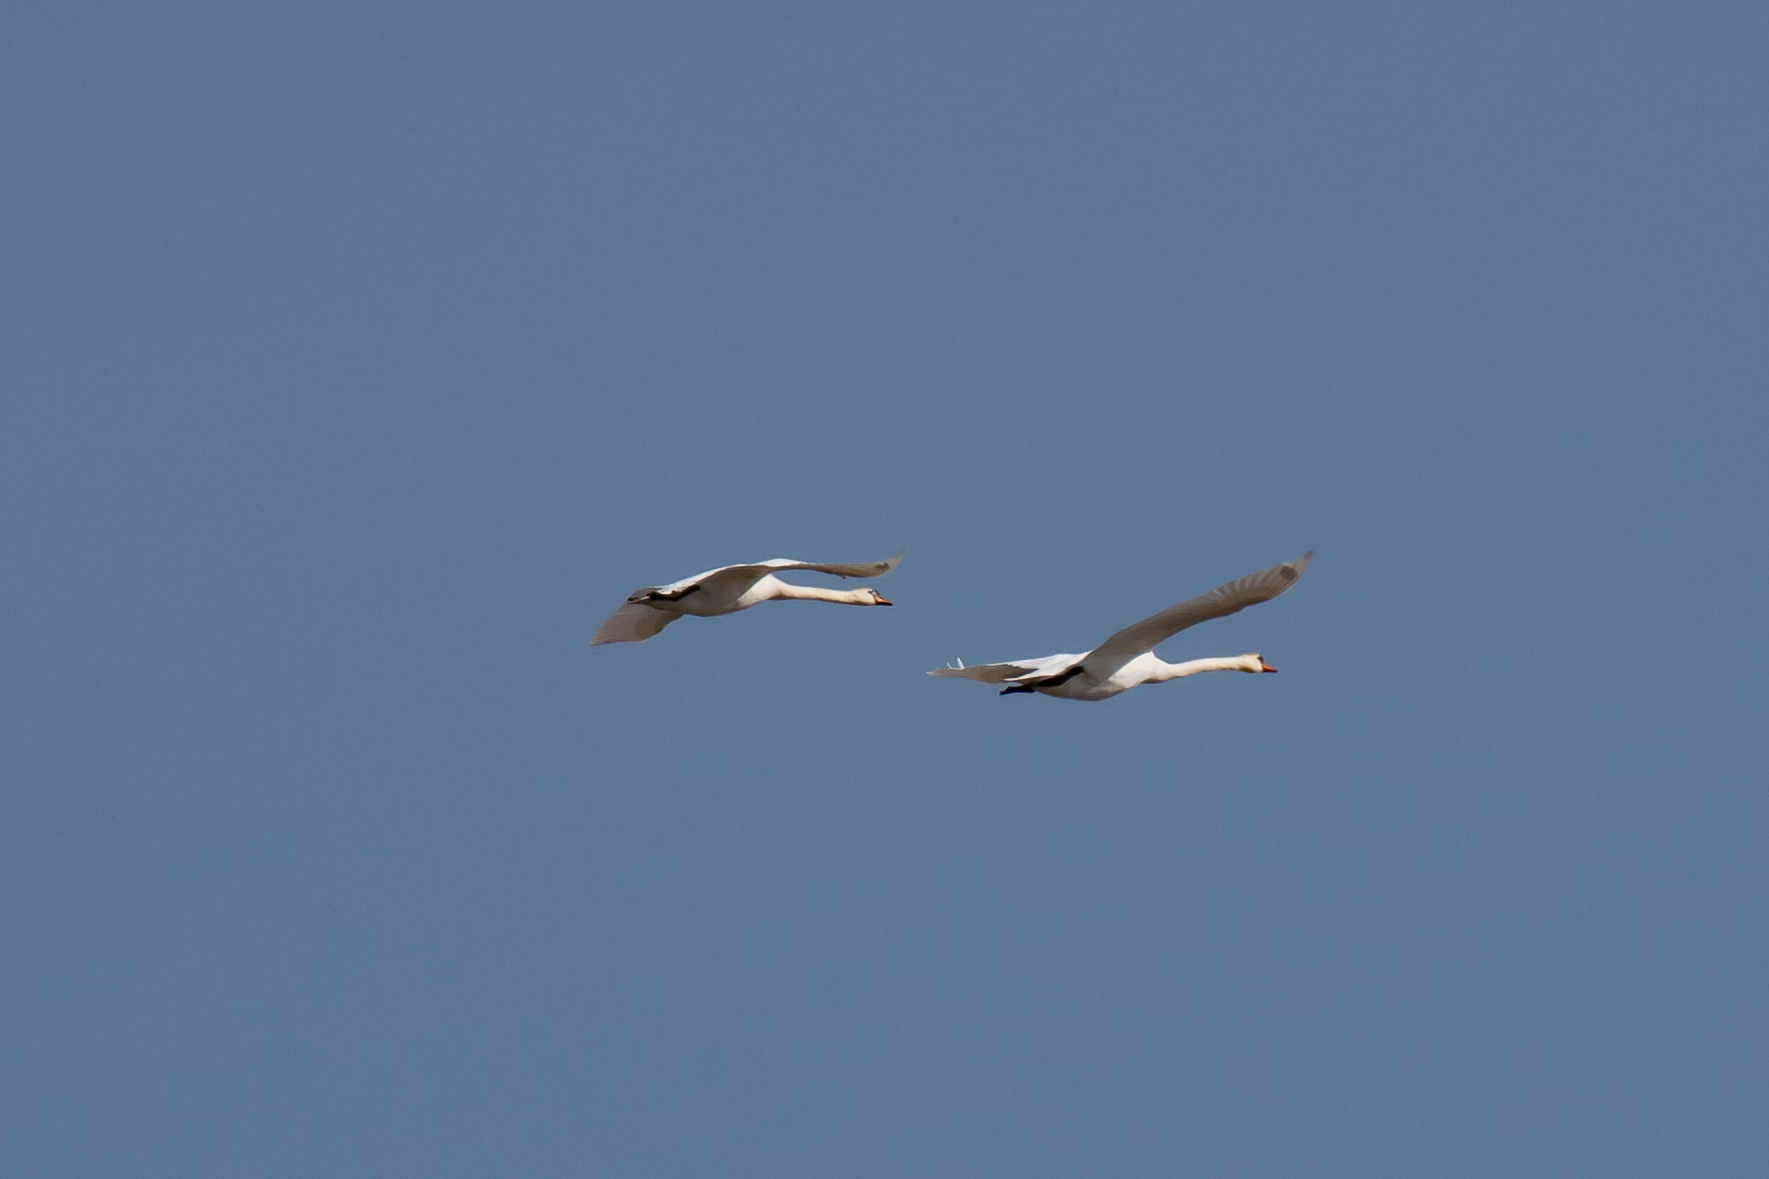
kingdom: Animalia
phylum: Chordata
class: Aves
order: Anseriformes
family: Anatidae
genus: Cygnus
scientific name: Cygnus olor
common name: Mute swan
